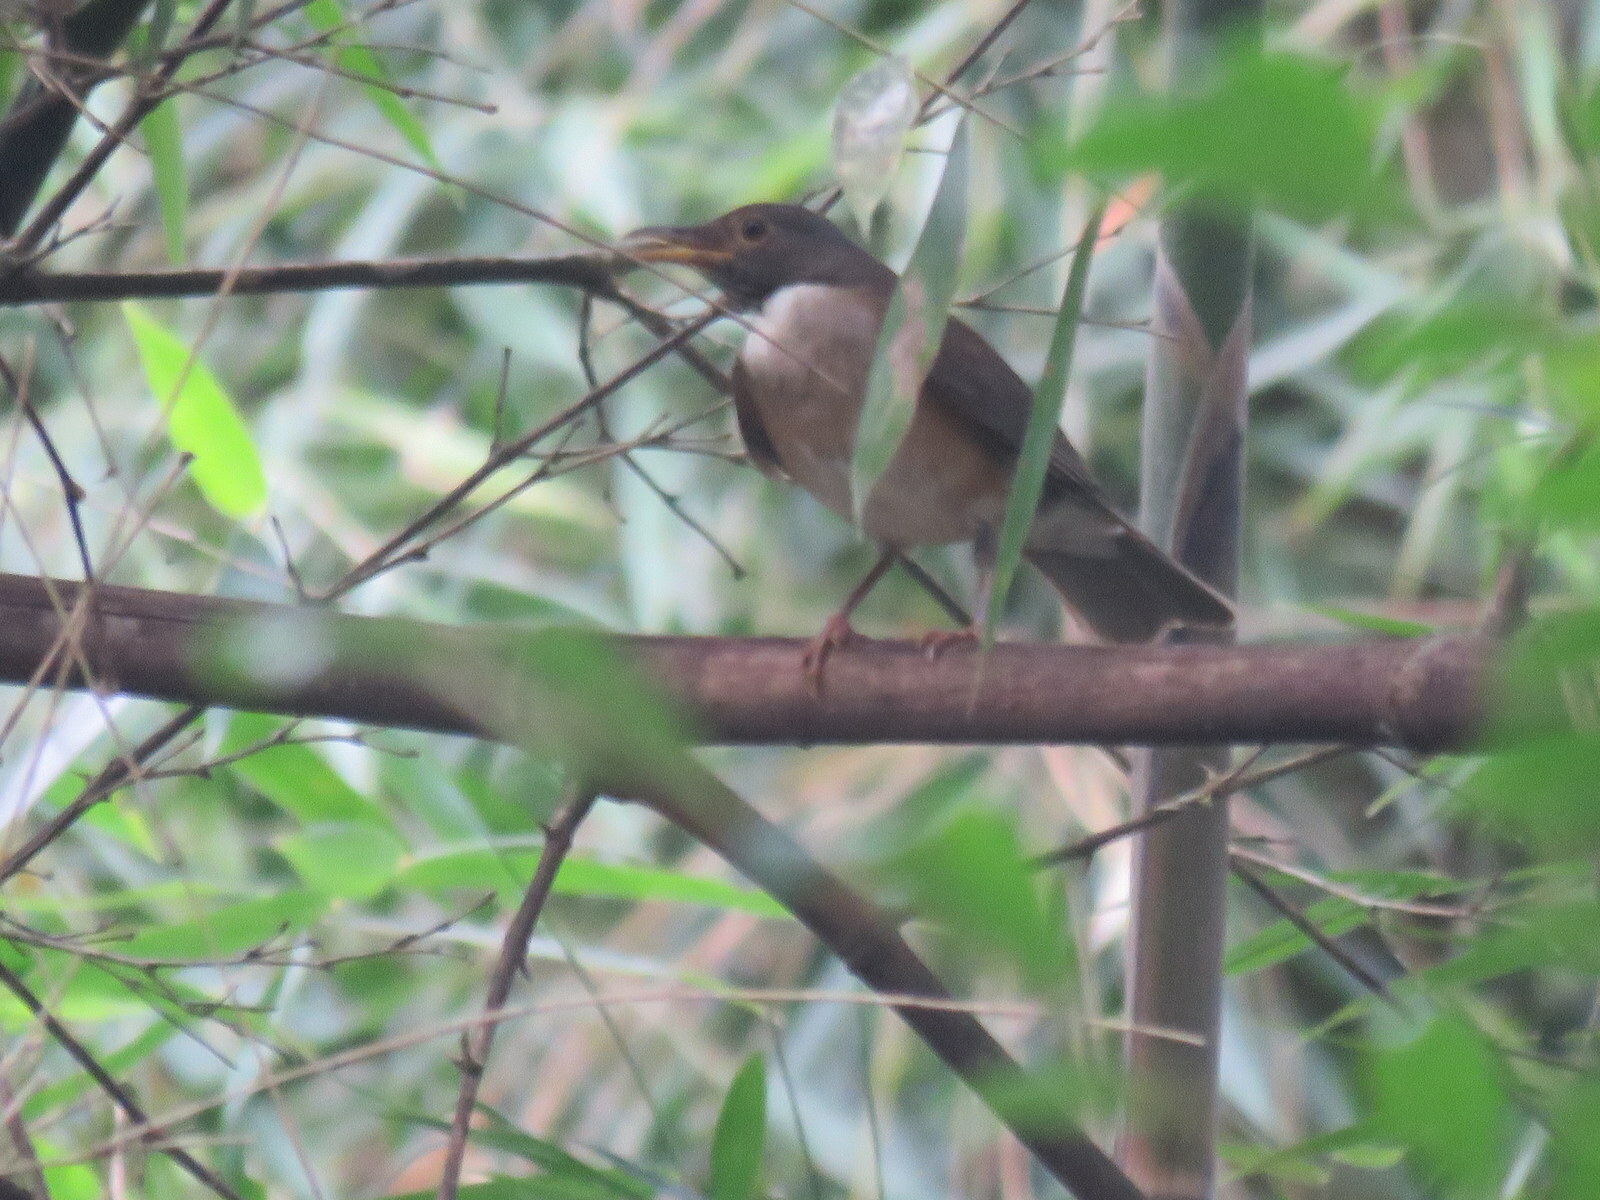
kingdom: Animalia
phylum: Chordata
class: Aves
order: Passeriformes
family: Turdidae
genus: Turdus
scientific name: Turdus albicollis
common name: White-necked thrush
